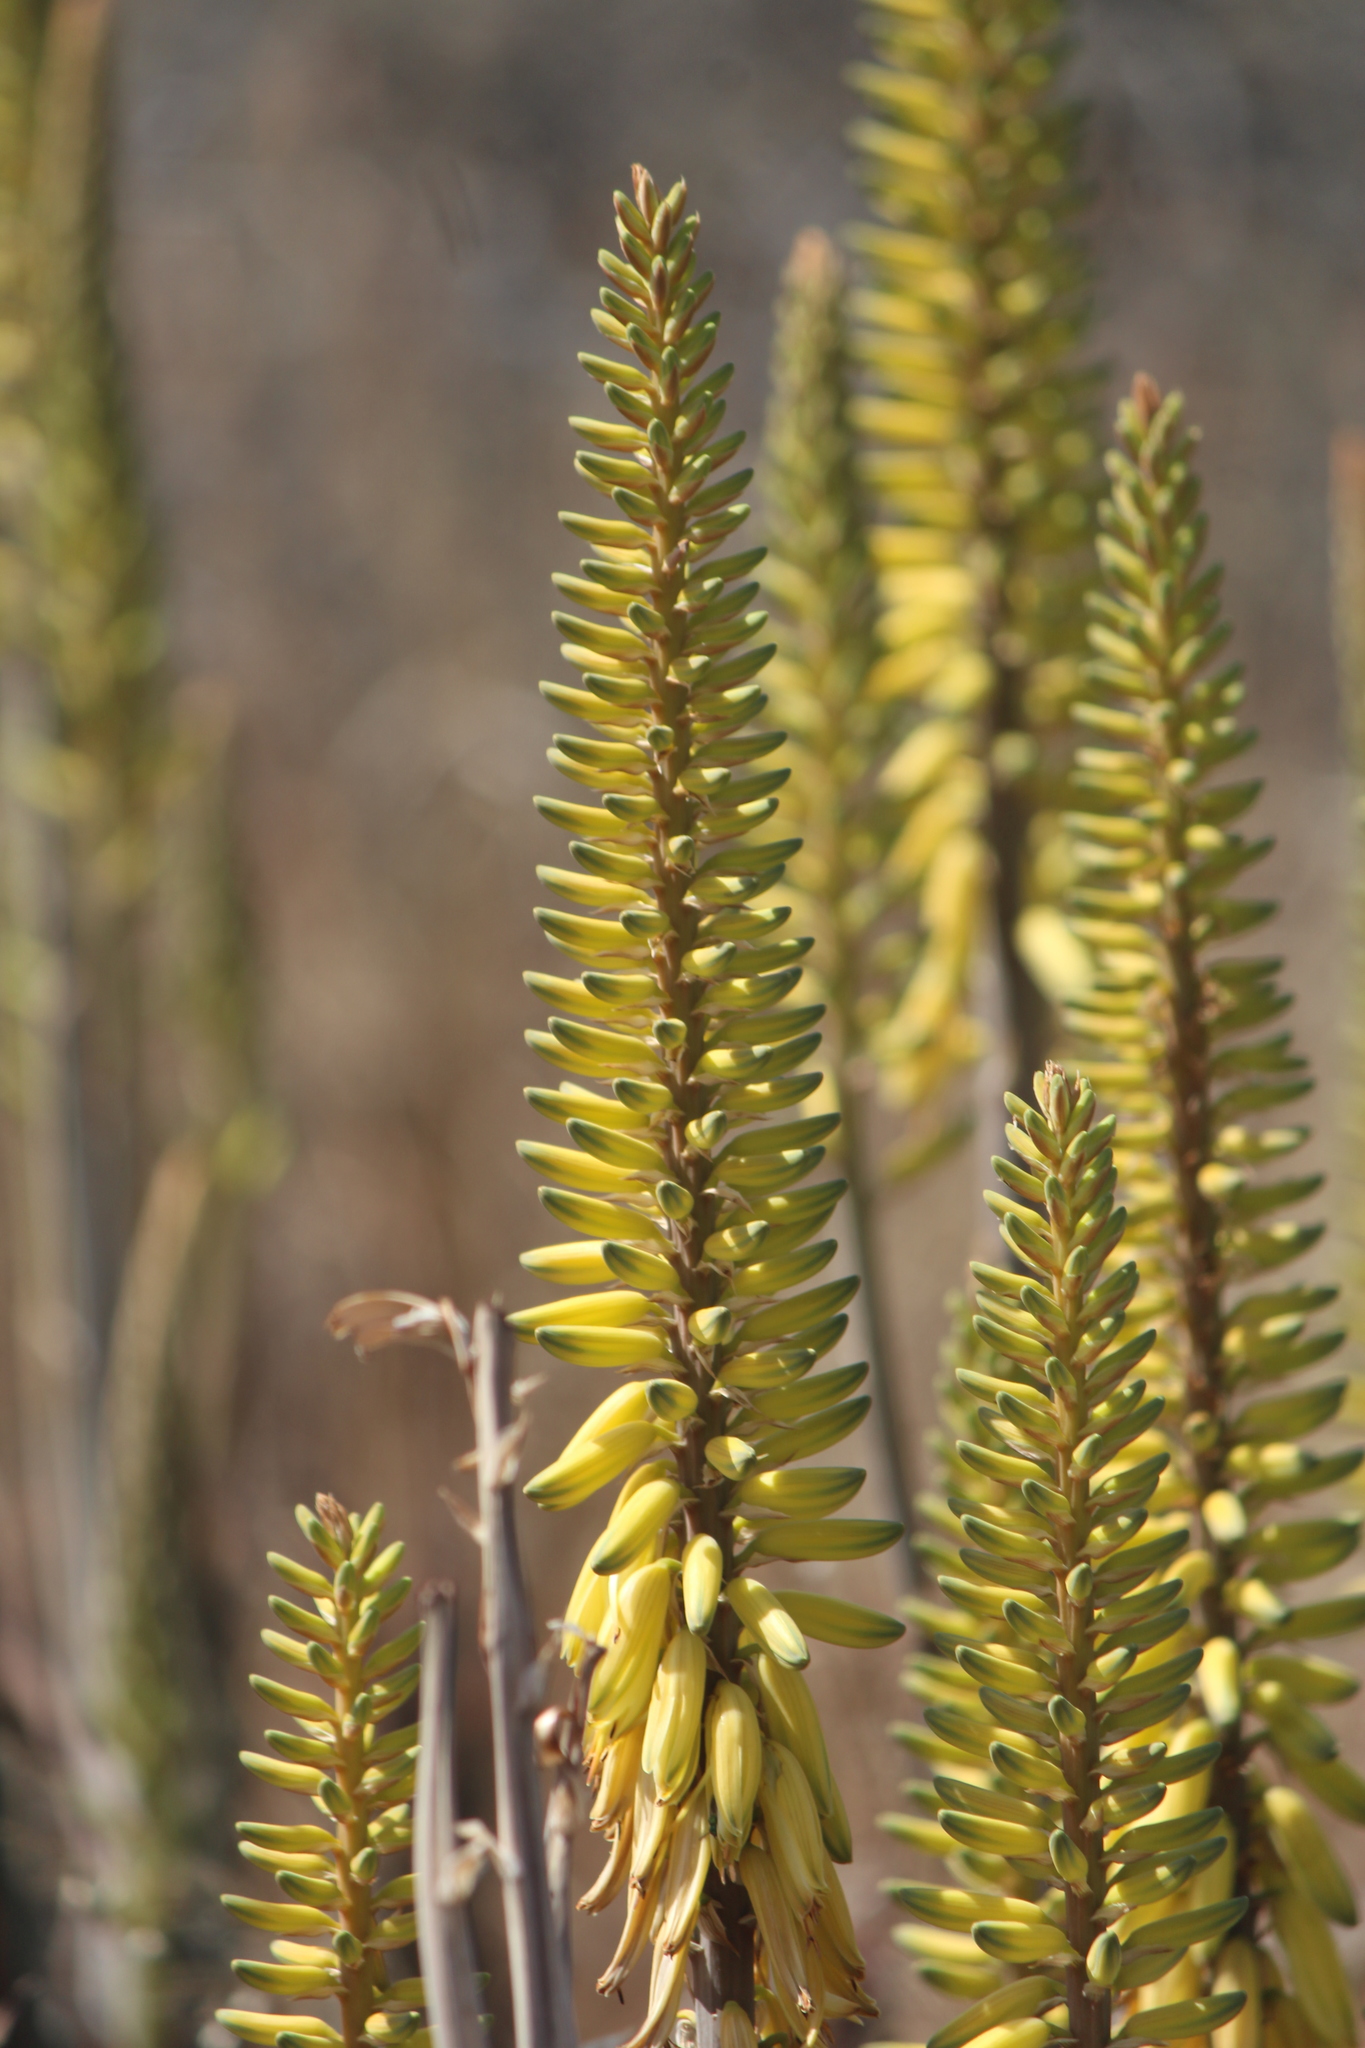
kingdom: Plantae
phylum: Tracheophyta
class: Liliopsida
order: Asparagales
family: Asphodelaceae
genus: Aloe
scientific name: Aloe vera
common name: Barbados aloe
